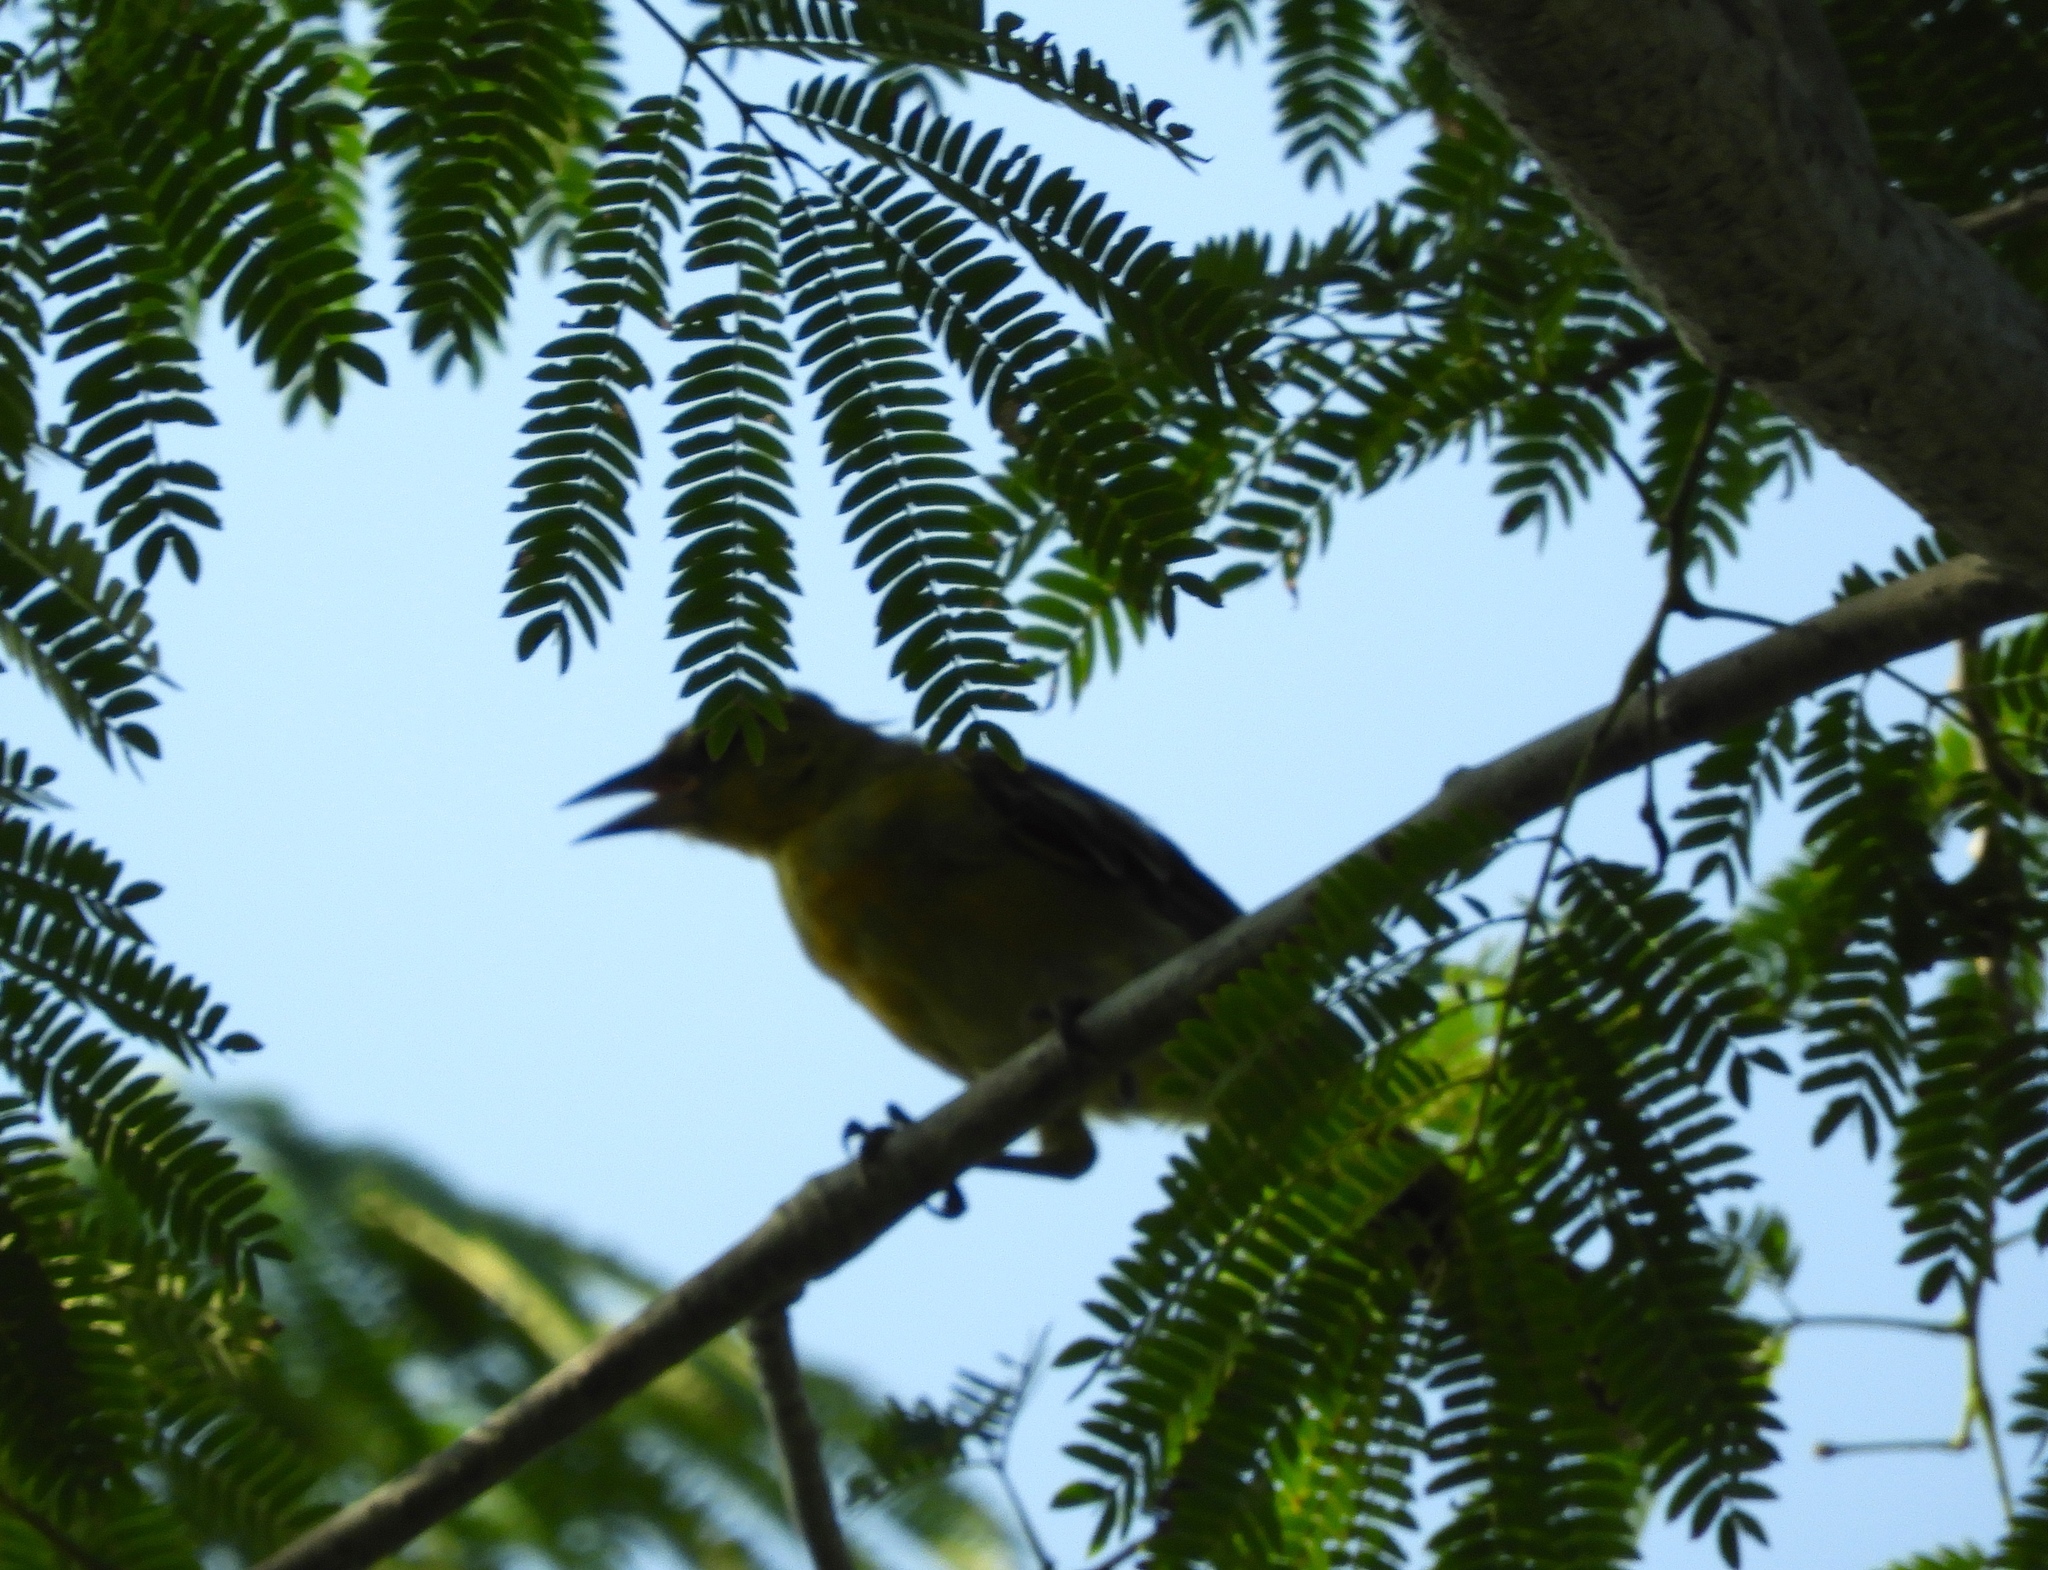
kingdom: Animalia
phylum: Chordata
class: Aves
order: Passeriformes
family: Icteridae
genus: Icterus
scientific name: Icterus
